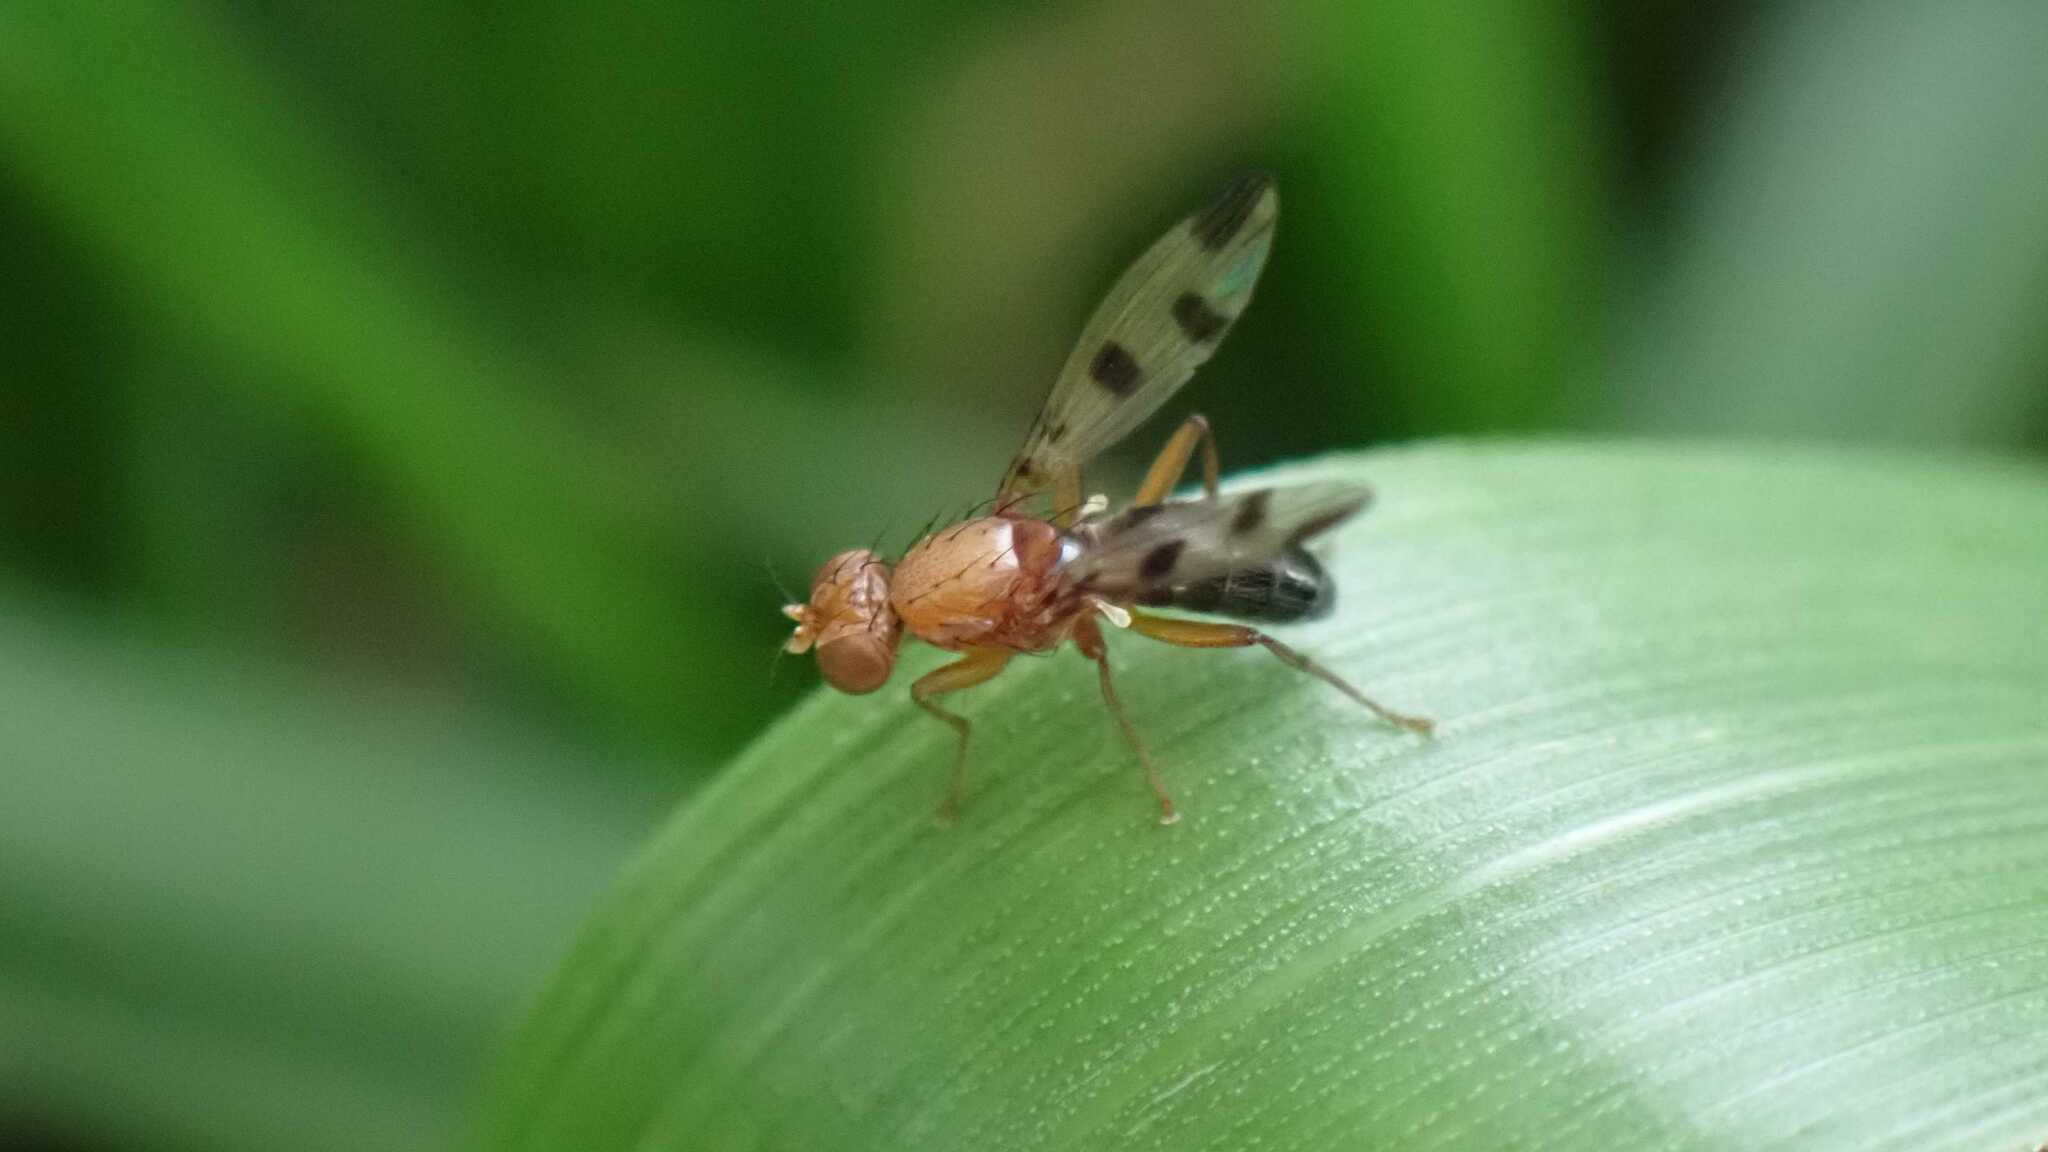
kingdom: Animalia
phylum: Arthropoda
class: Insecta
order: Diptera
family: Opomyzidae
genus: Geomyza
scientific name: Geomyza tripunctata
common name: Cereal fly
